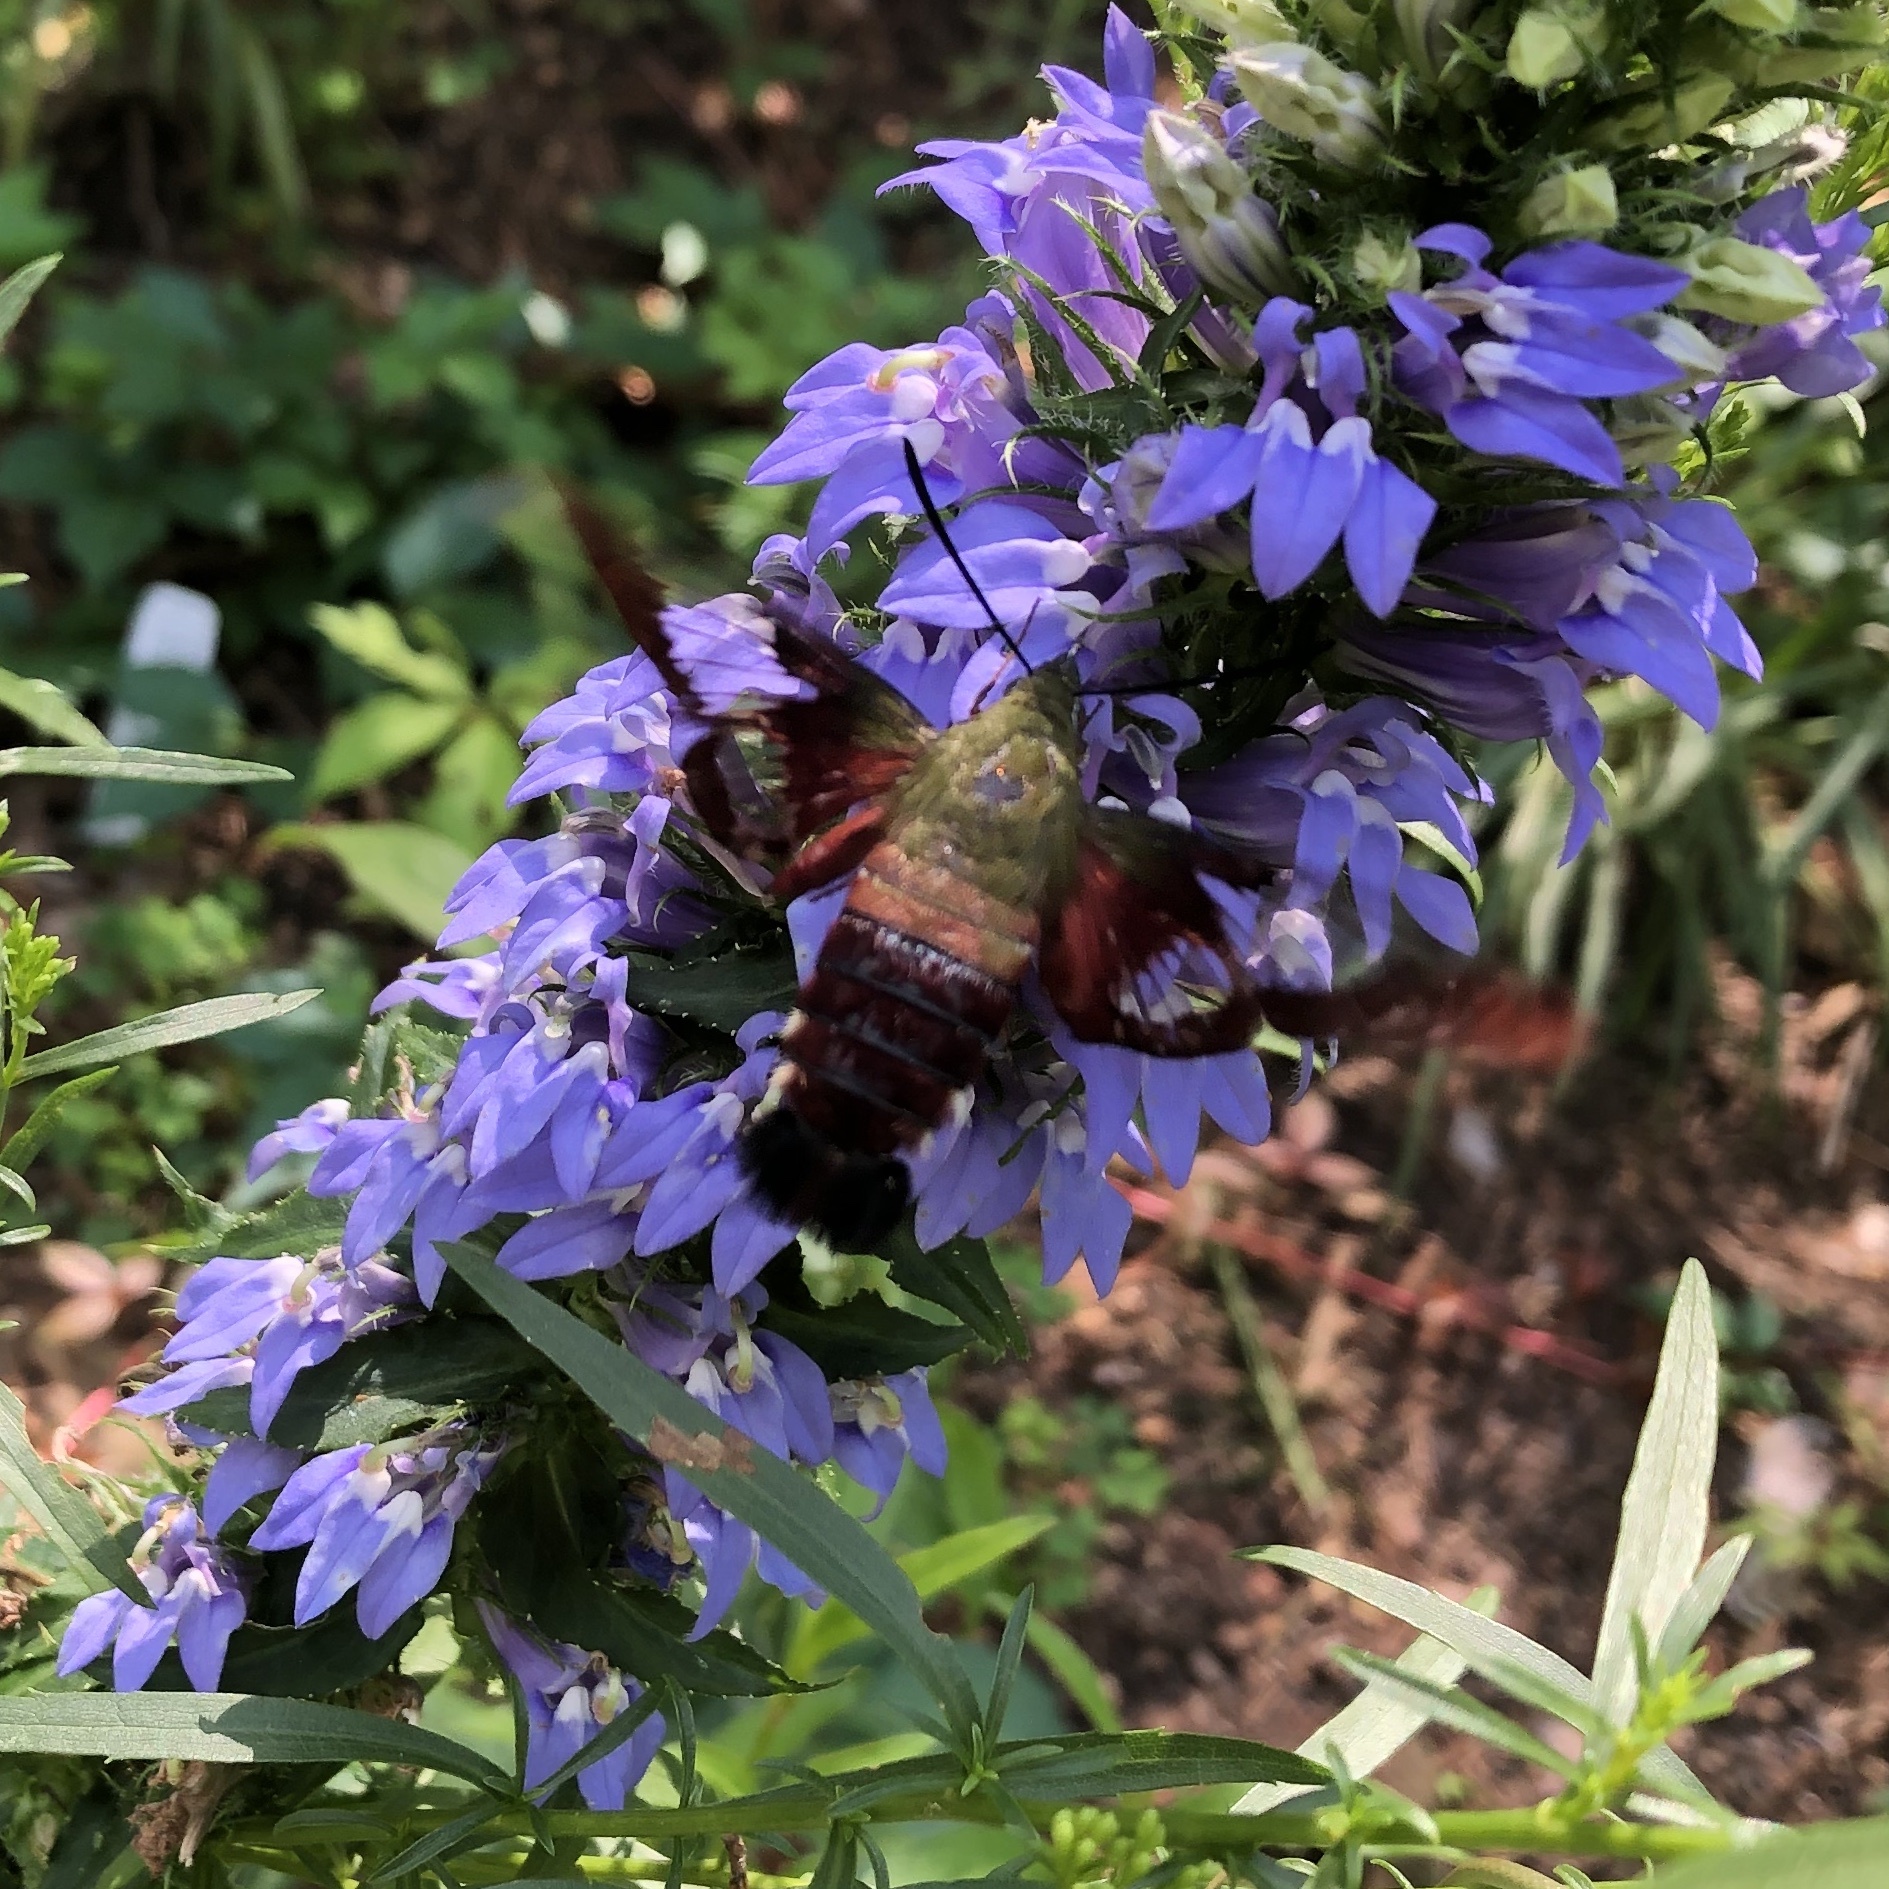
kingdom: Animalia
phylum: Arthropoda
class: Insecta
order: Lepidoptera
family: Sphingidae
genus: Hemaris
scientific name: Hemaris thysbe
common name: Common clear-wing
